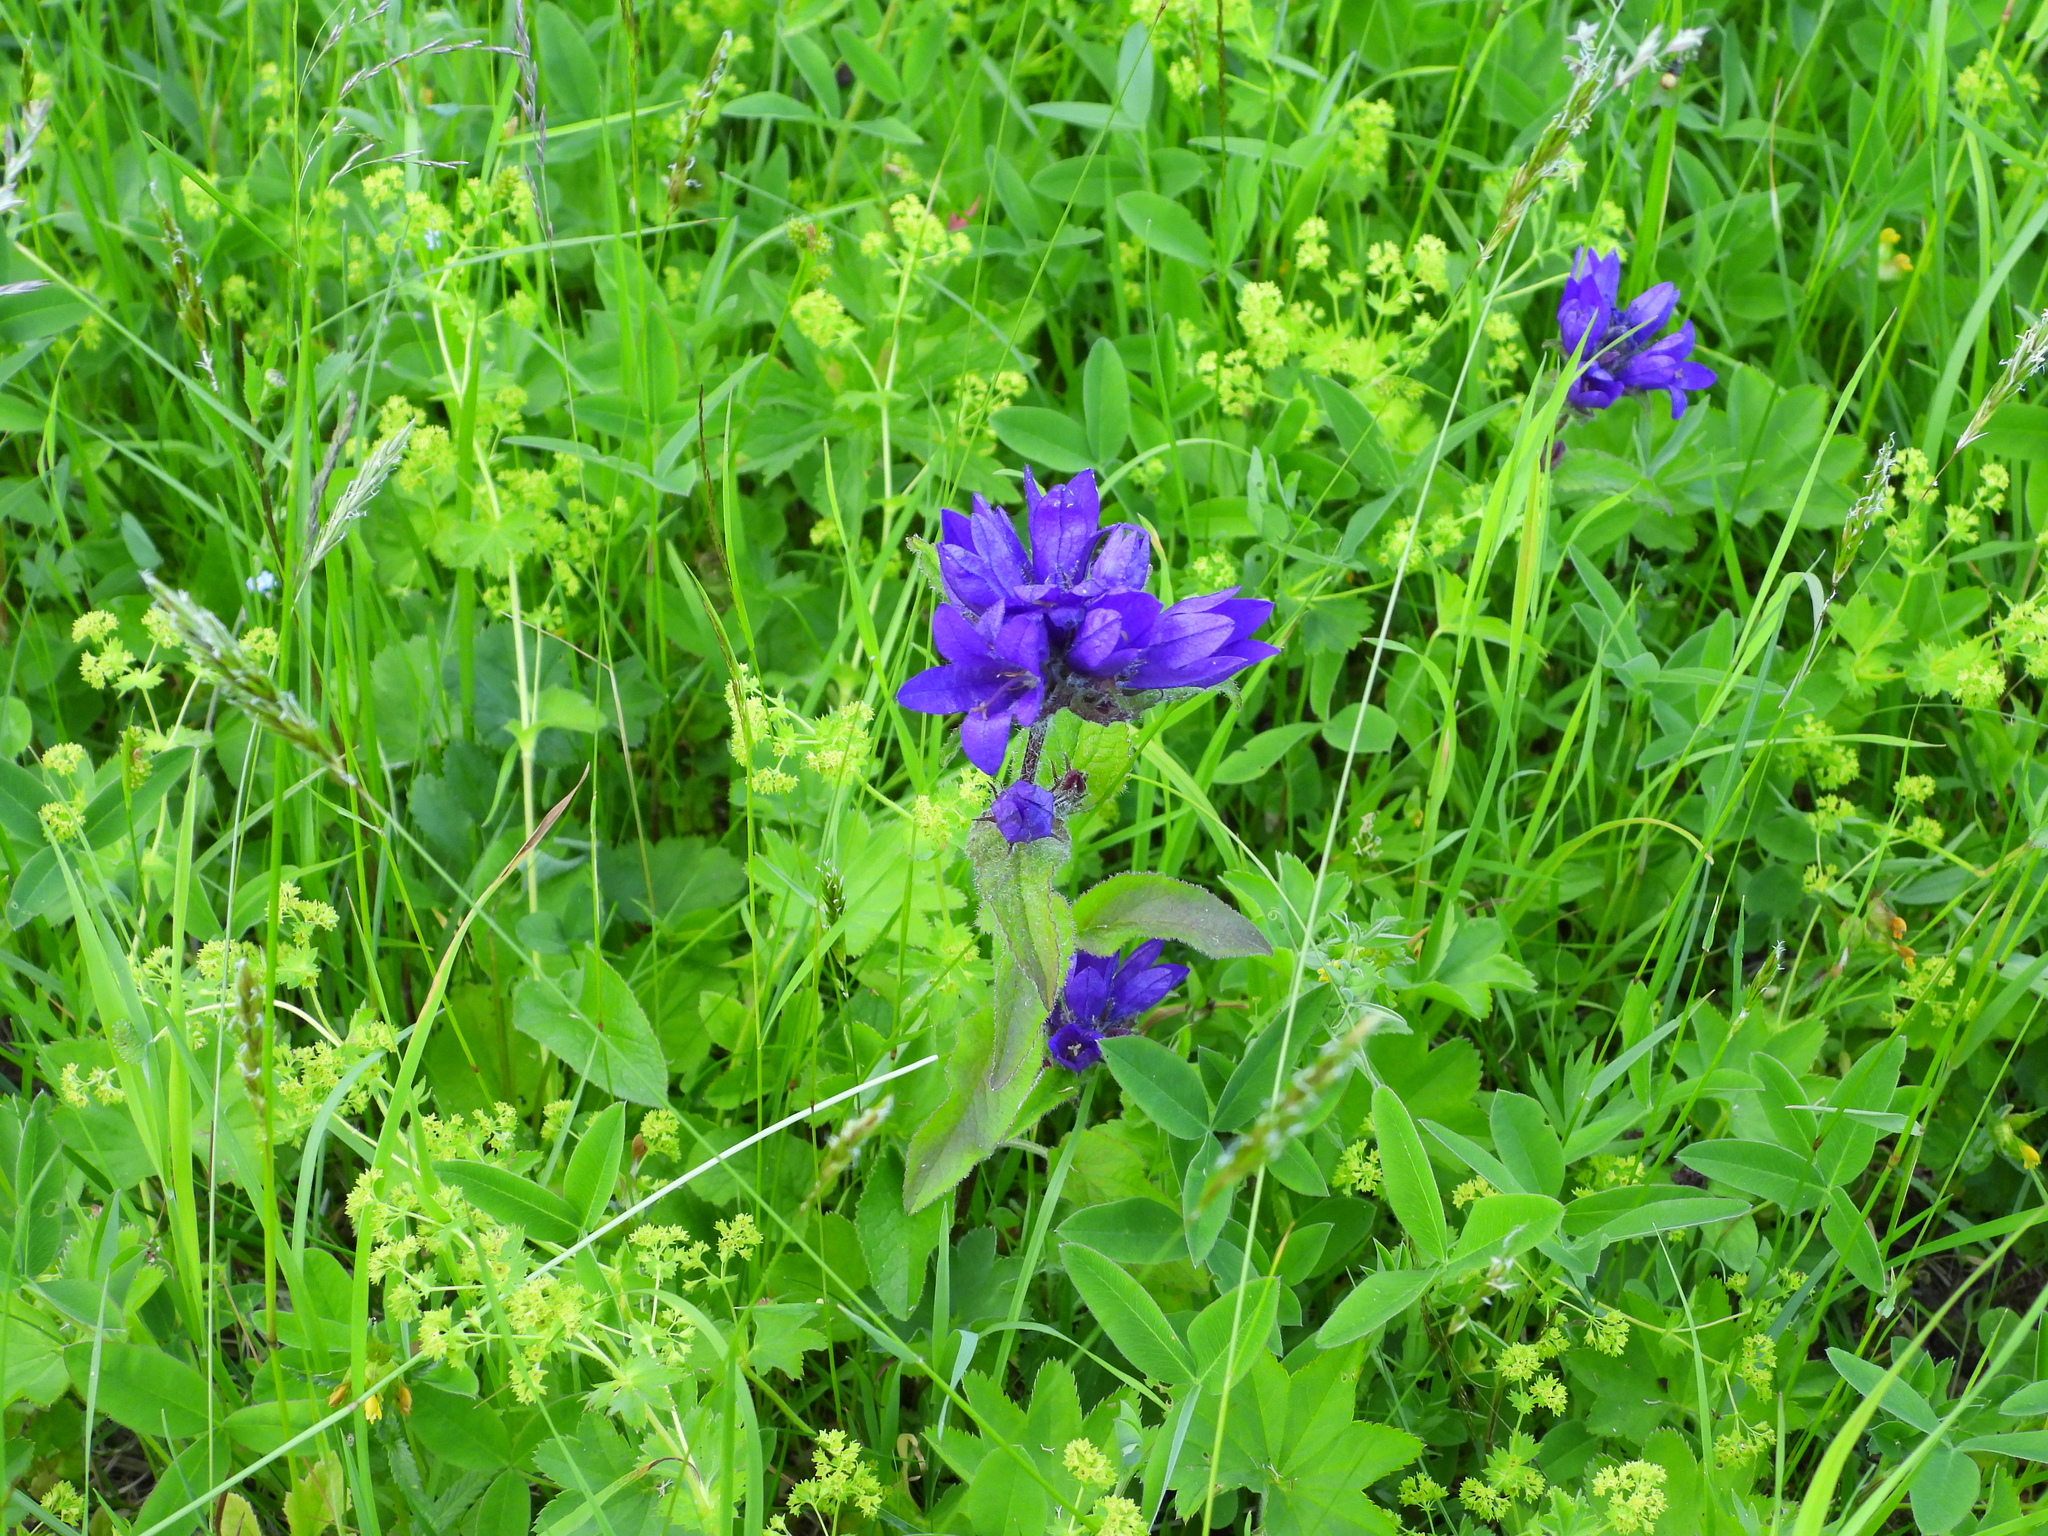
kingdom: Plantae
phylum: Tracheophyta
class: Magnoliopsida
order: Asterales
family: Campanulaceae
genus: Campanula
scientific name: Campanula glomerata
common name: Clustered bellflower
